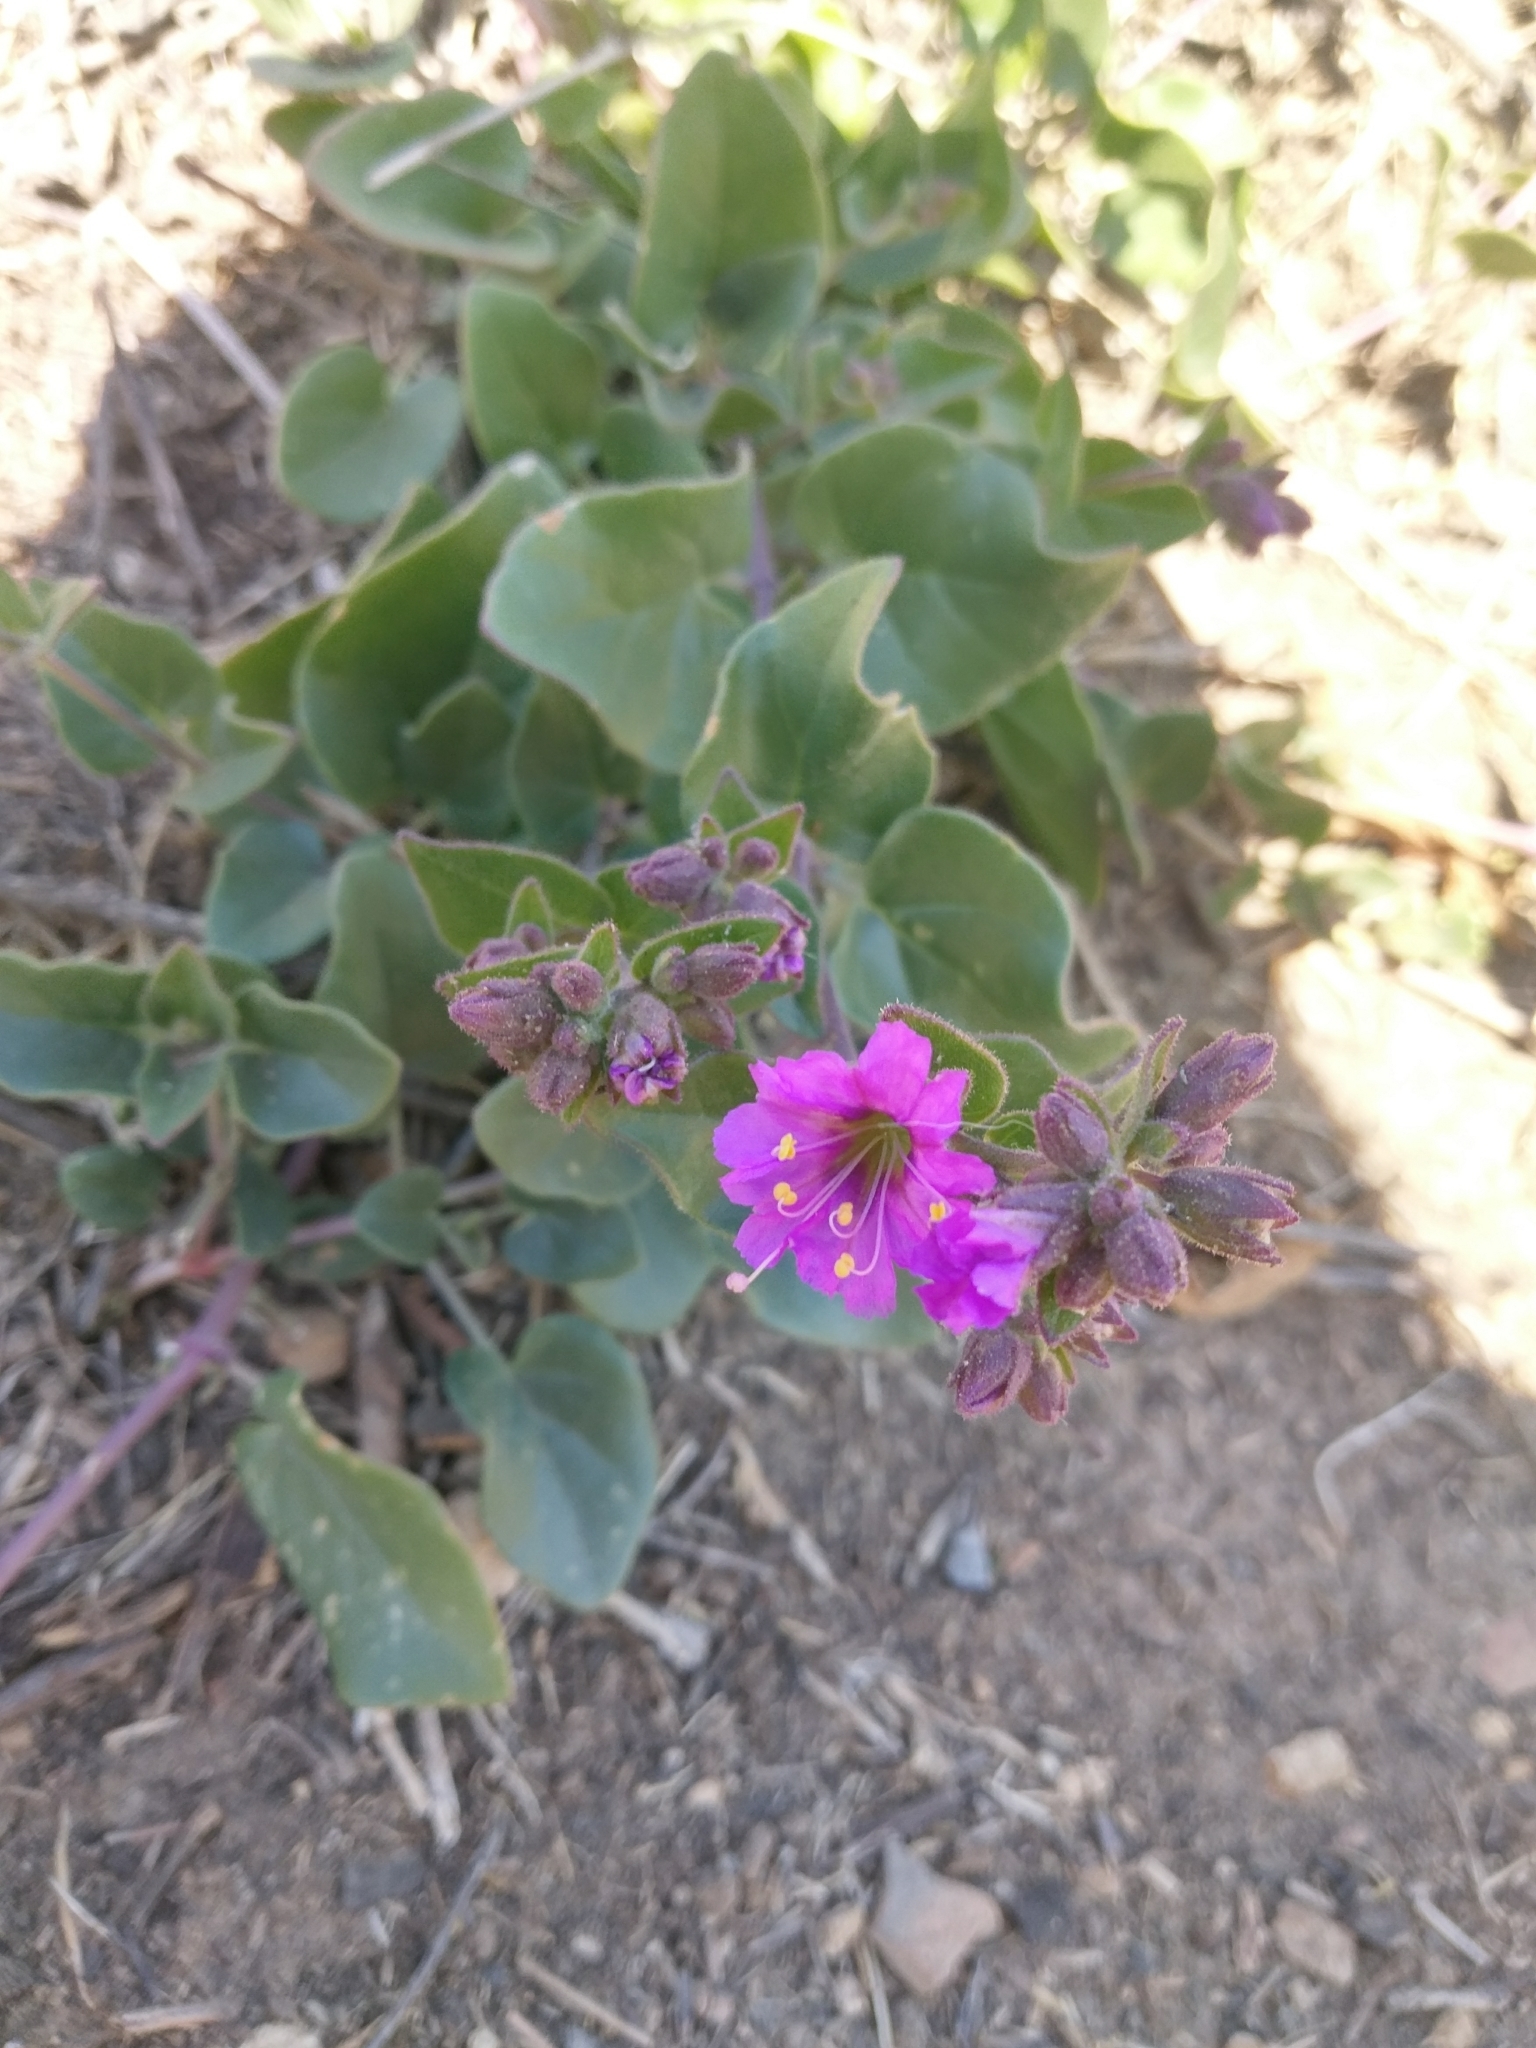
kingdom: Plantae
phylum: Tracheophyta
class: Magnoliopsida
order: Caryophyllales
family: Nyctaginaceae
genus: Mirabilis
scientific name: Mirabilis laevis
